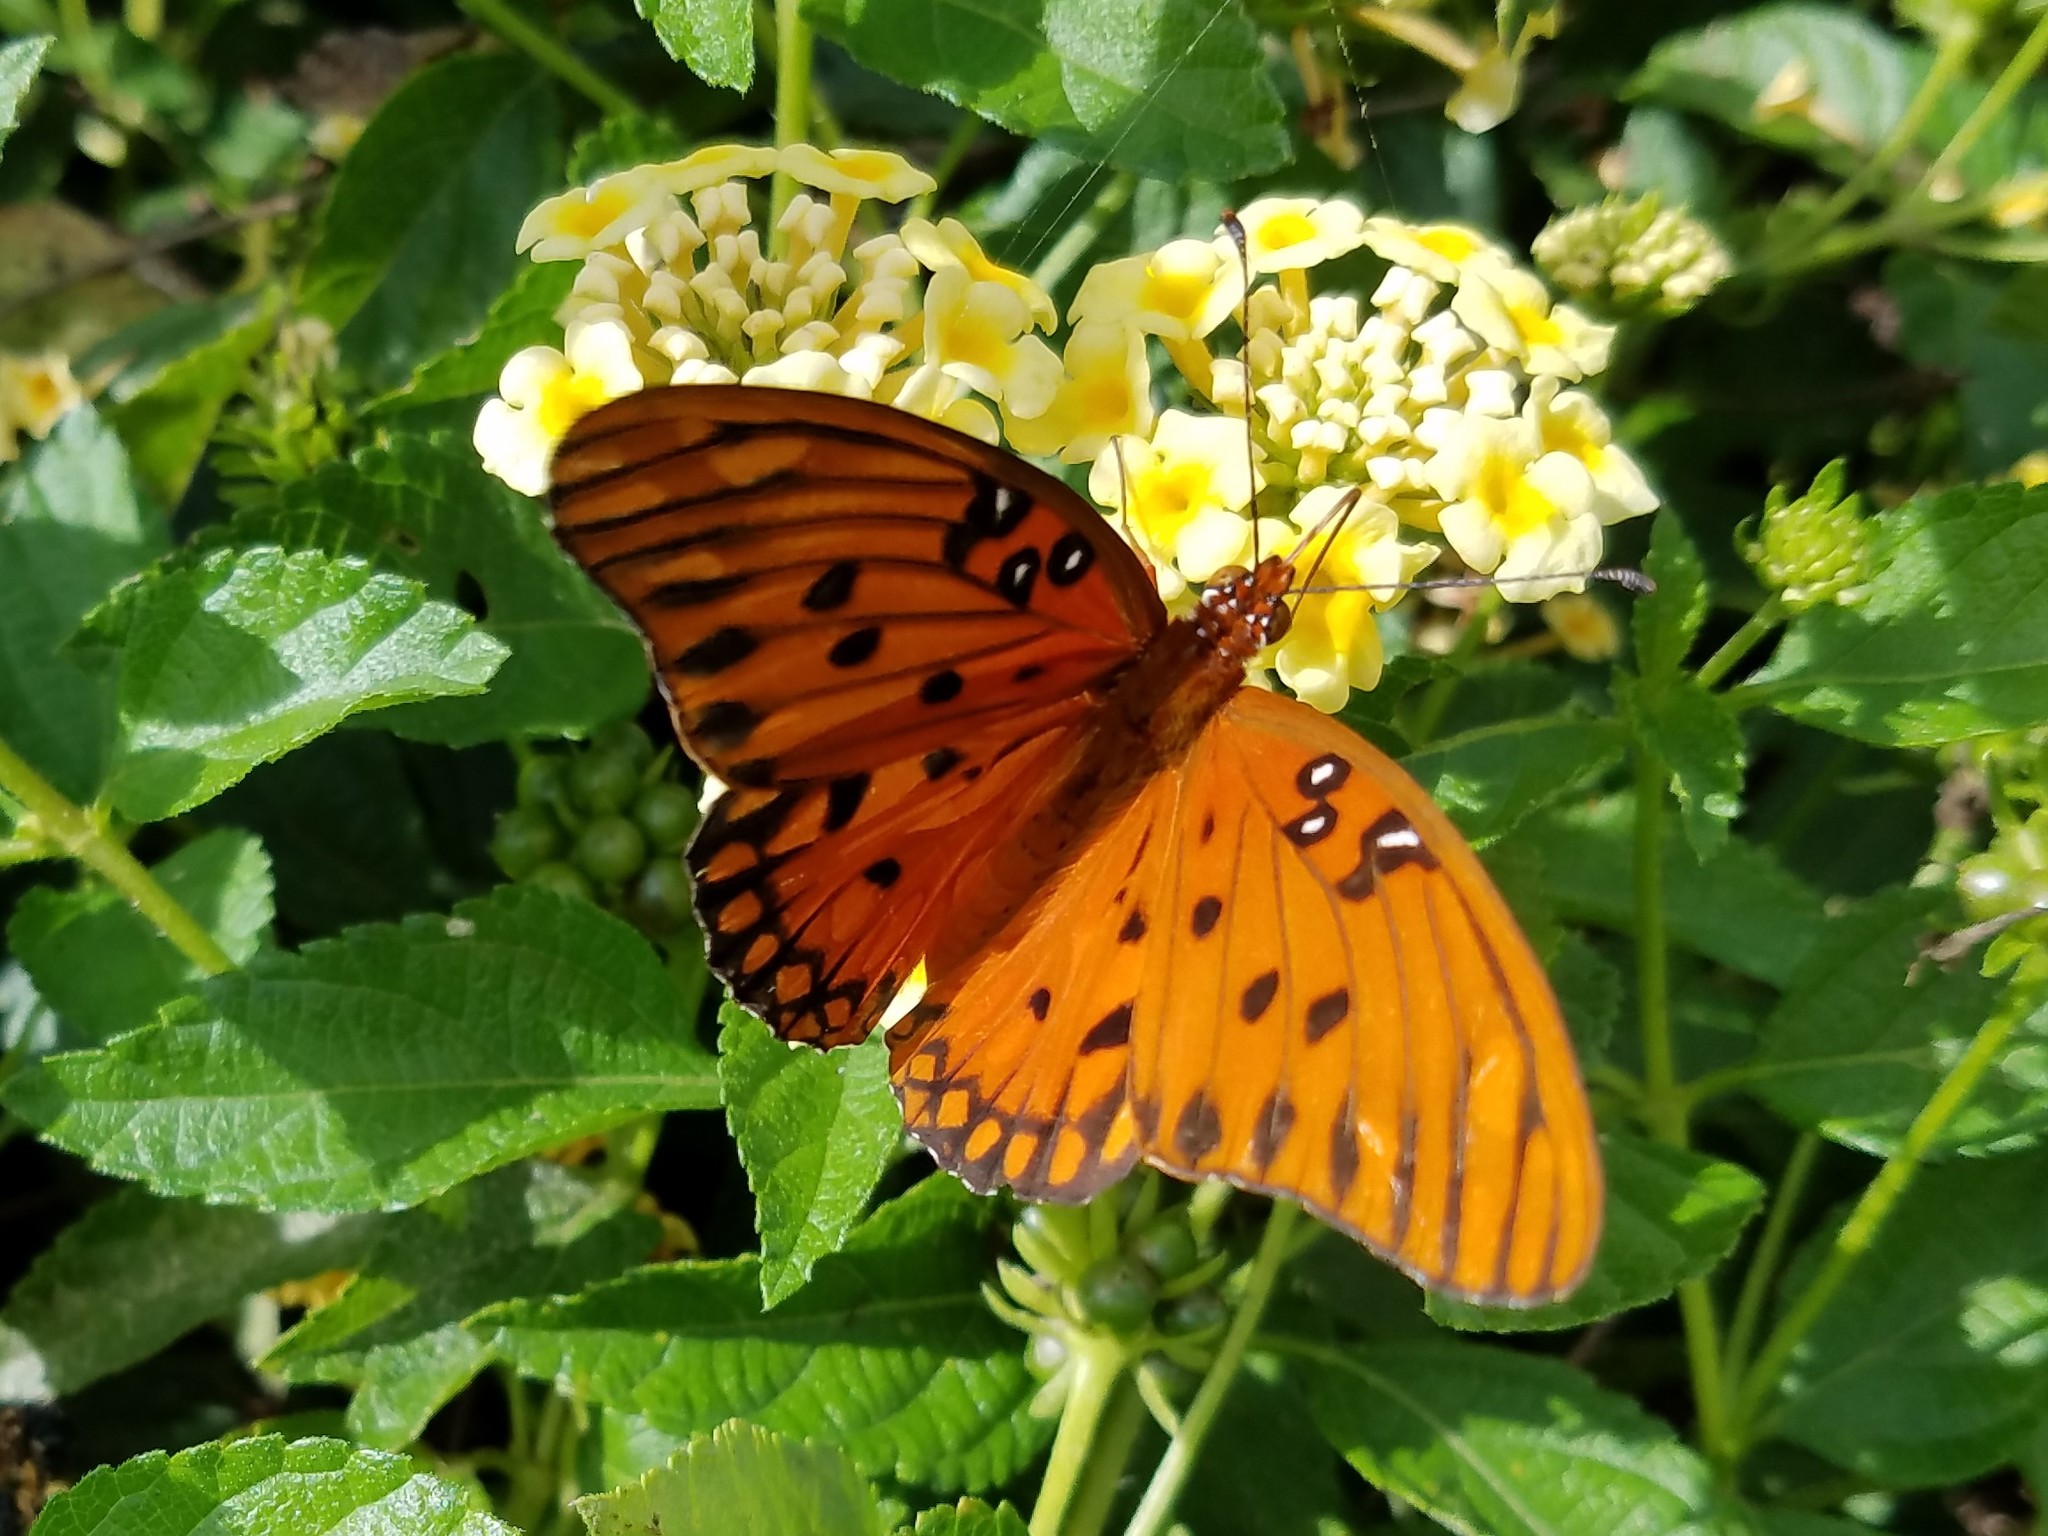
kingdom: Animalia
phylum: Arthropoda
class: Insecta
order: Lepidoptera
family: Nymphalidae
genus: Dione
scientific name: Dione vanillae
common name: Gulf fritillary
